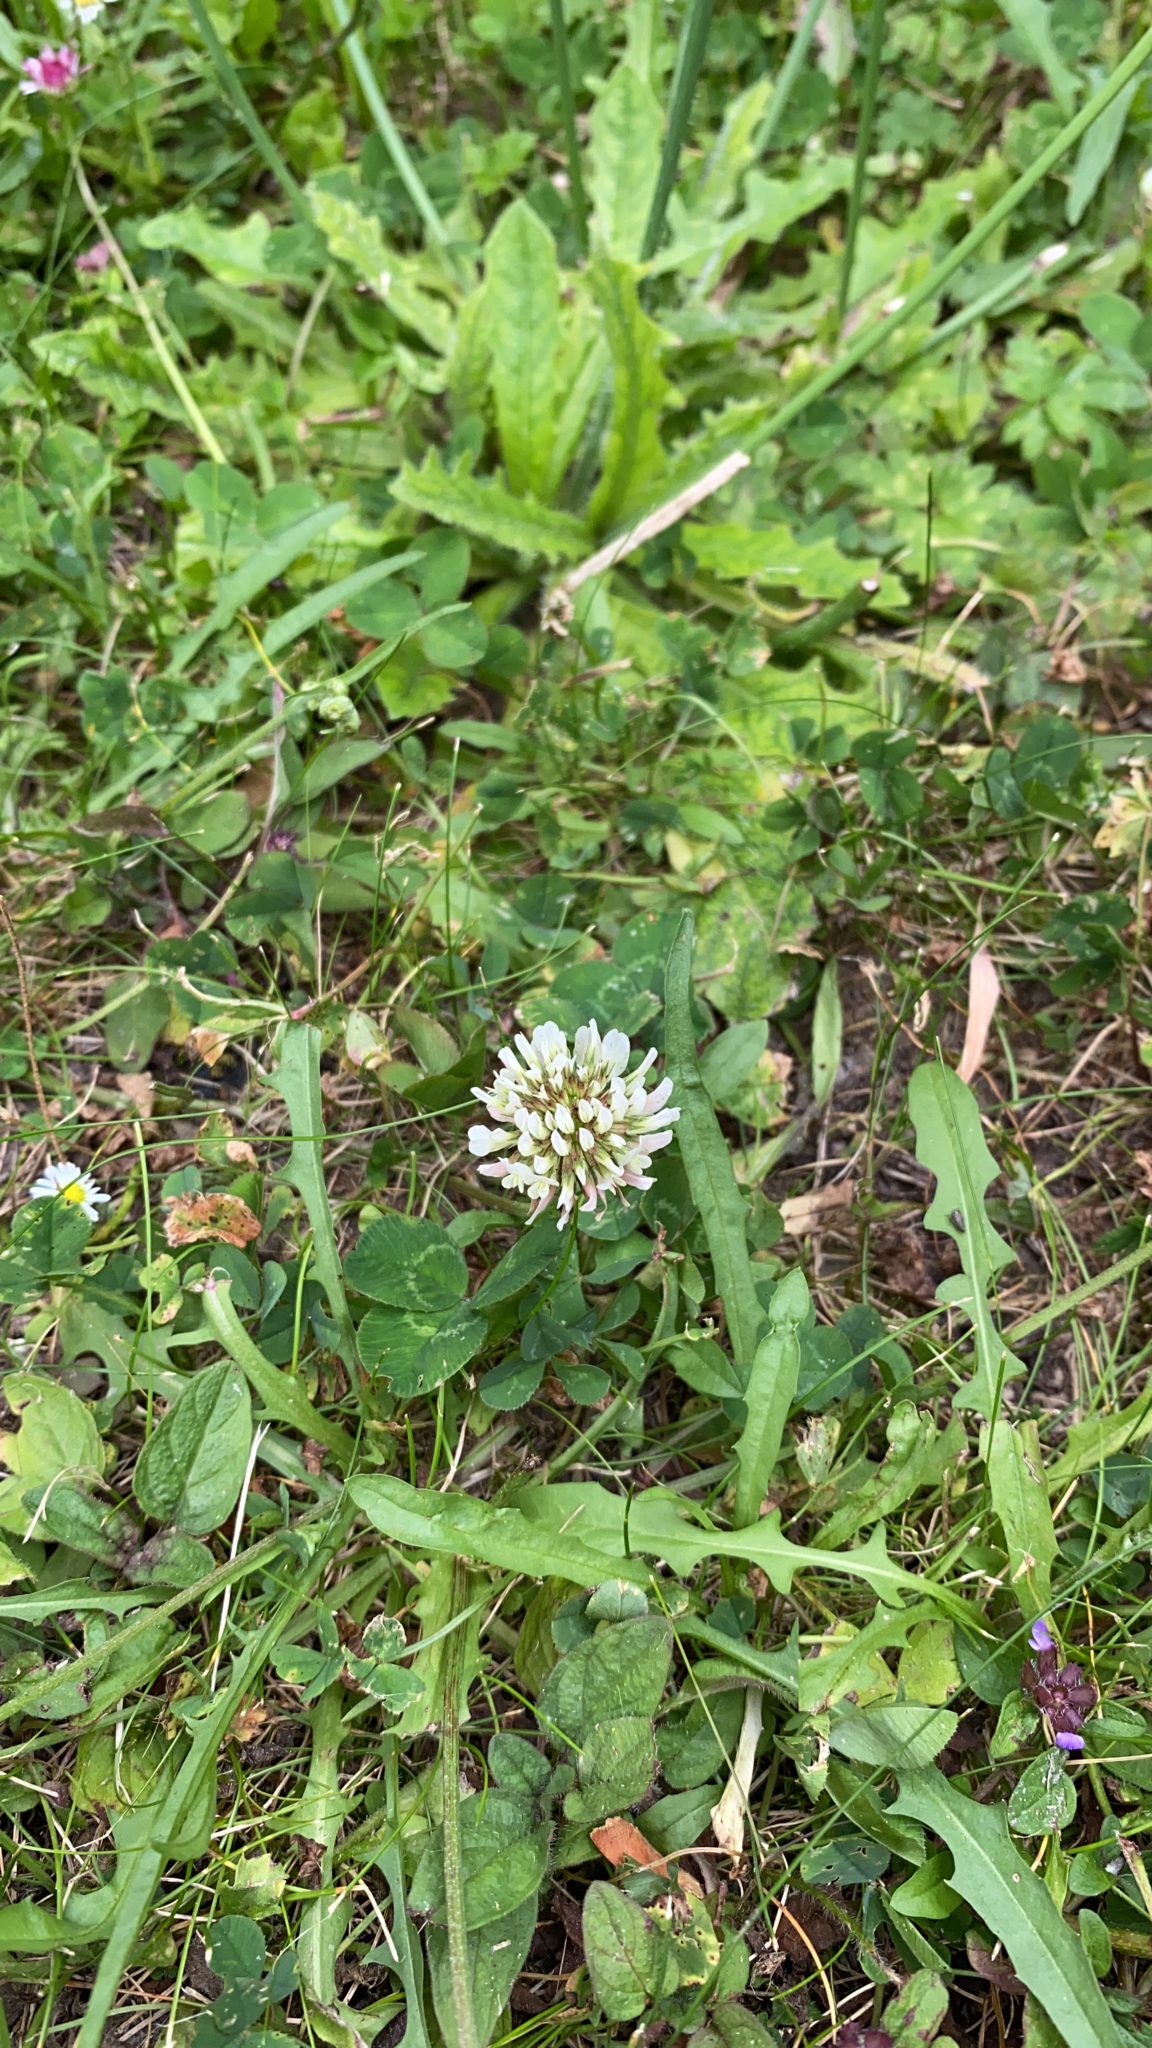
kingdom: Plantae
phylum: Tracheophyta
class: Magnoliopsida
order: Fabales
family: Fabaceae
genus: Trifolium
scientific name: Trifolium repens
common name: White clover
